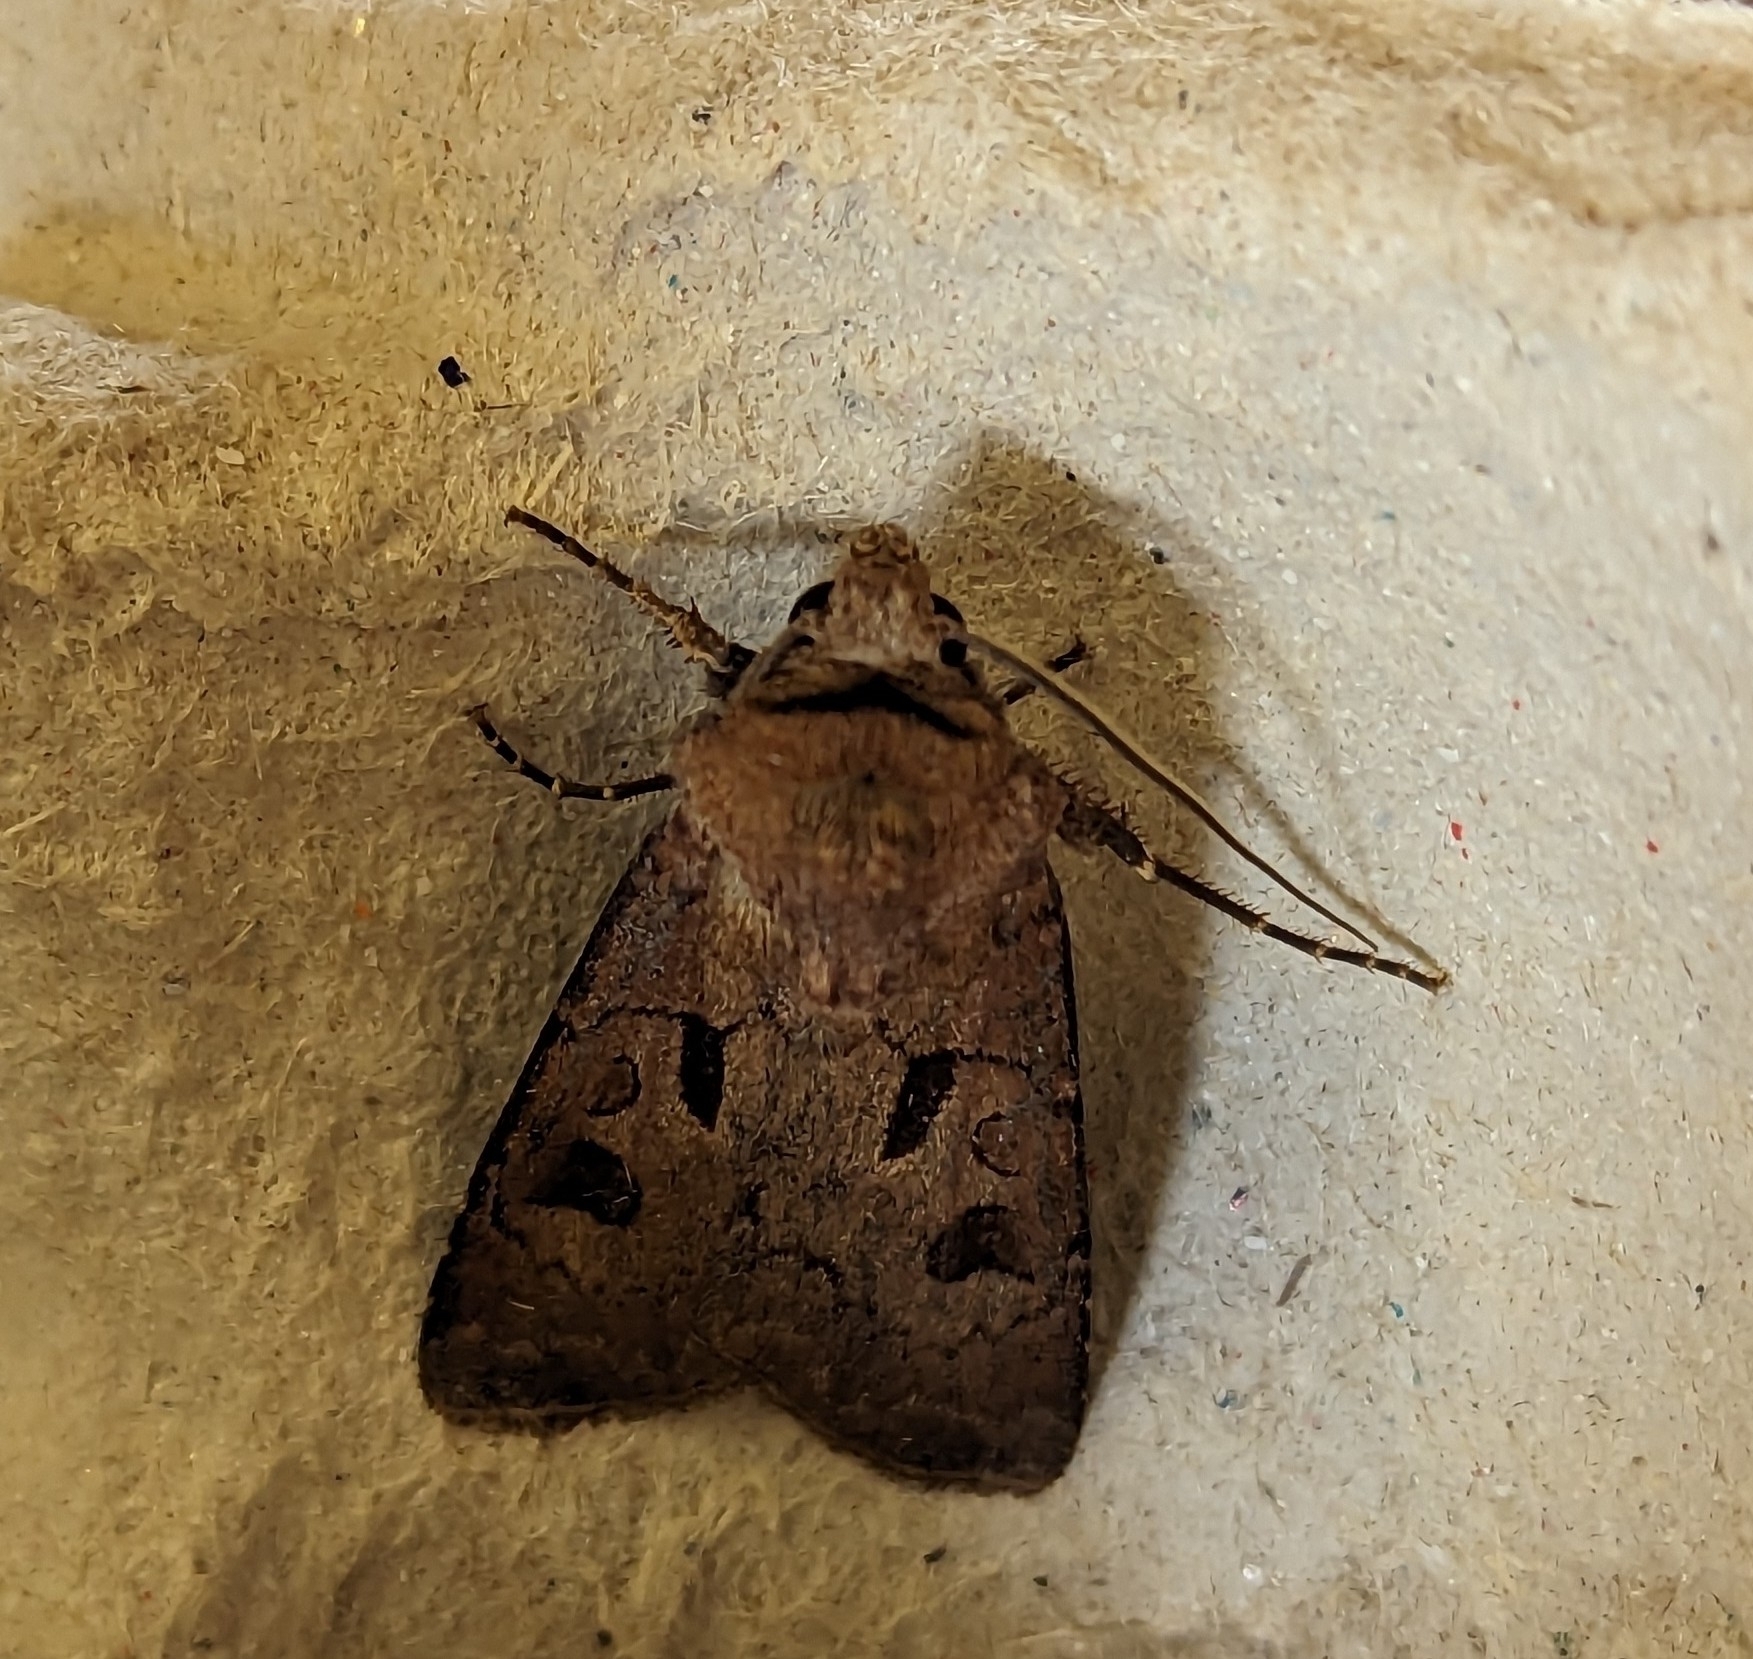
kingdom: Animalia
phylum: Arthropoda
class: Insecta
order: Lepidoptera
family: Noctuidae
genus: Agrotis
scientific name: Agrotis exclamationis
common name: Heart and dart
